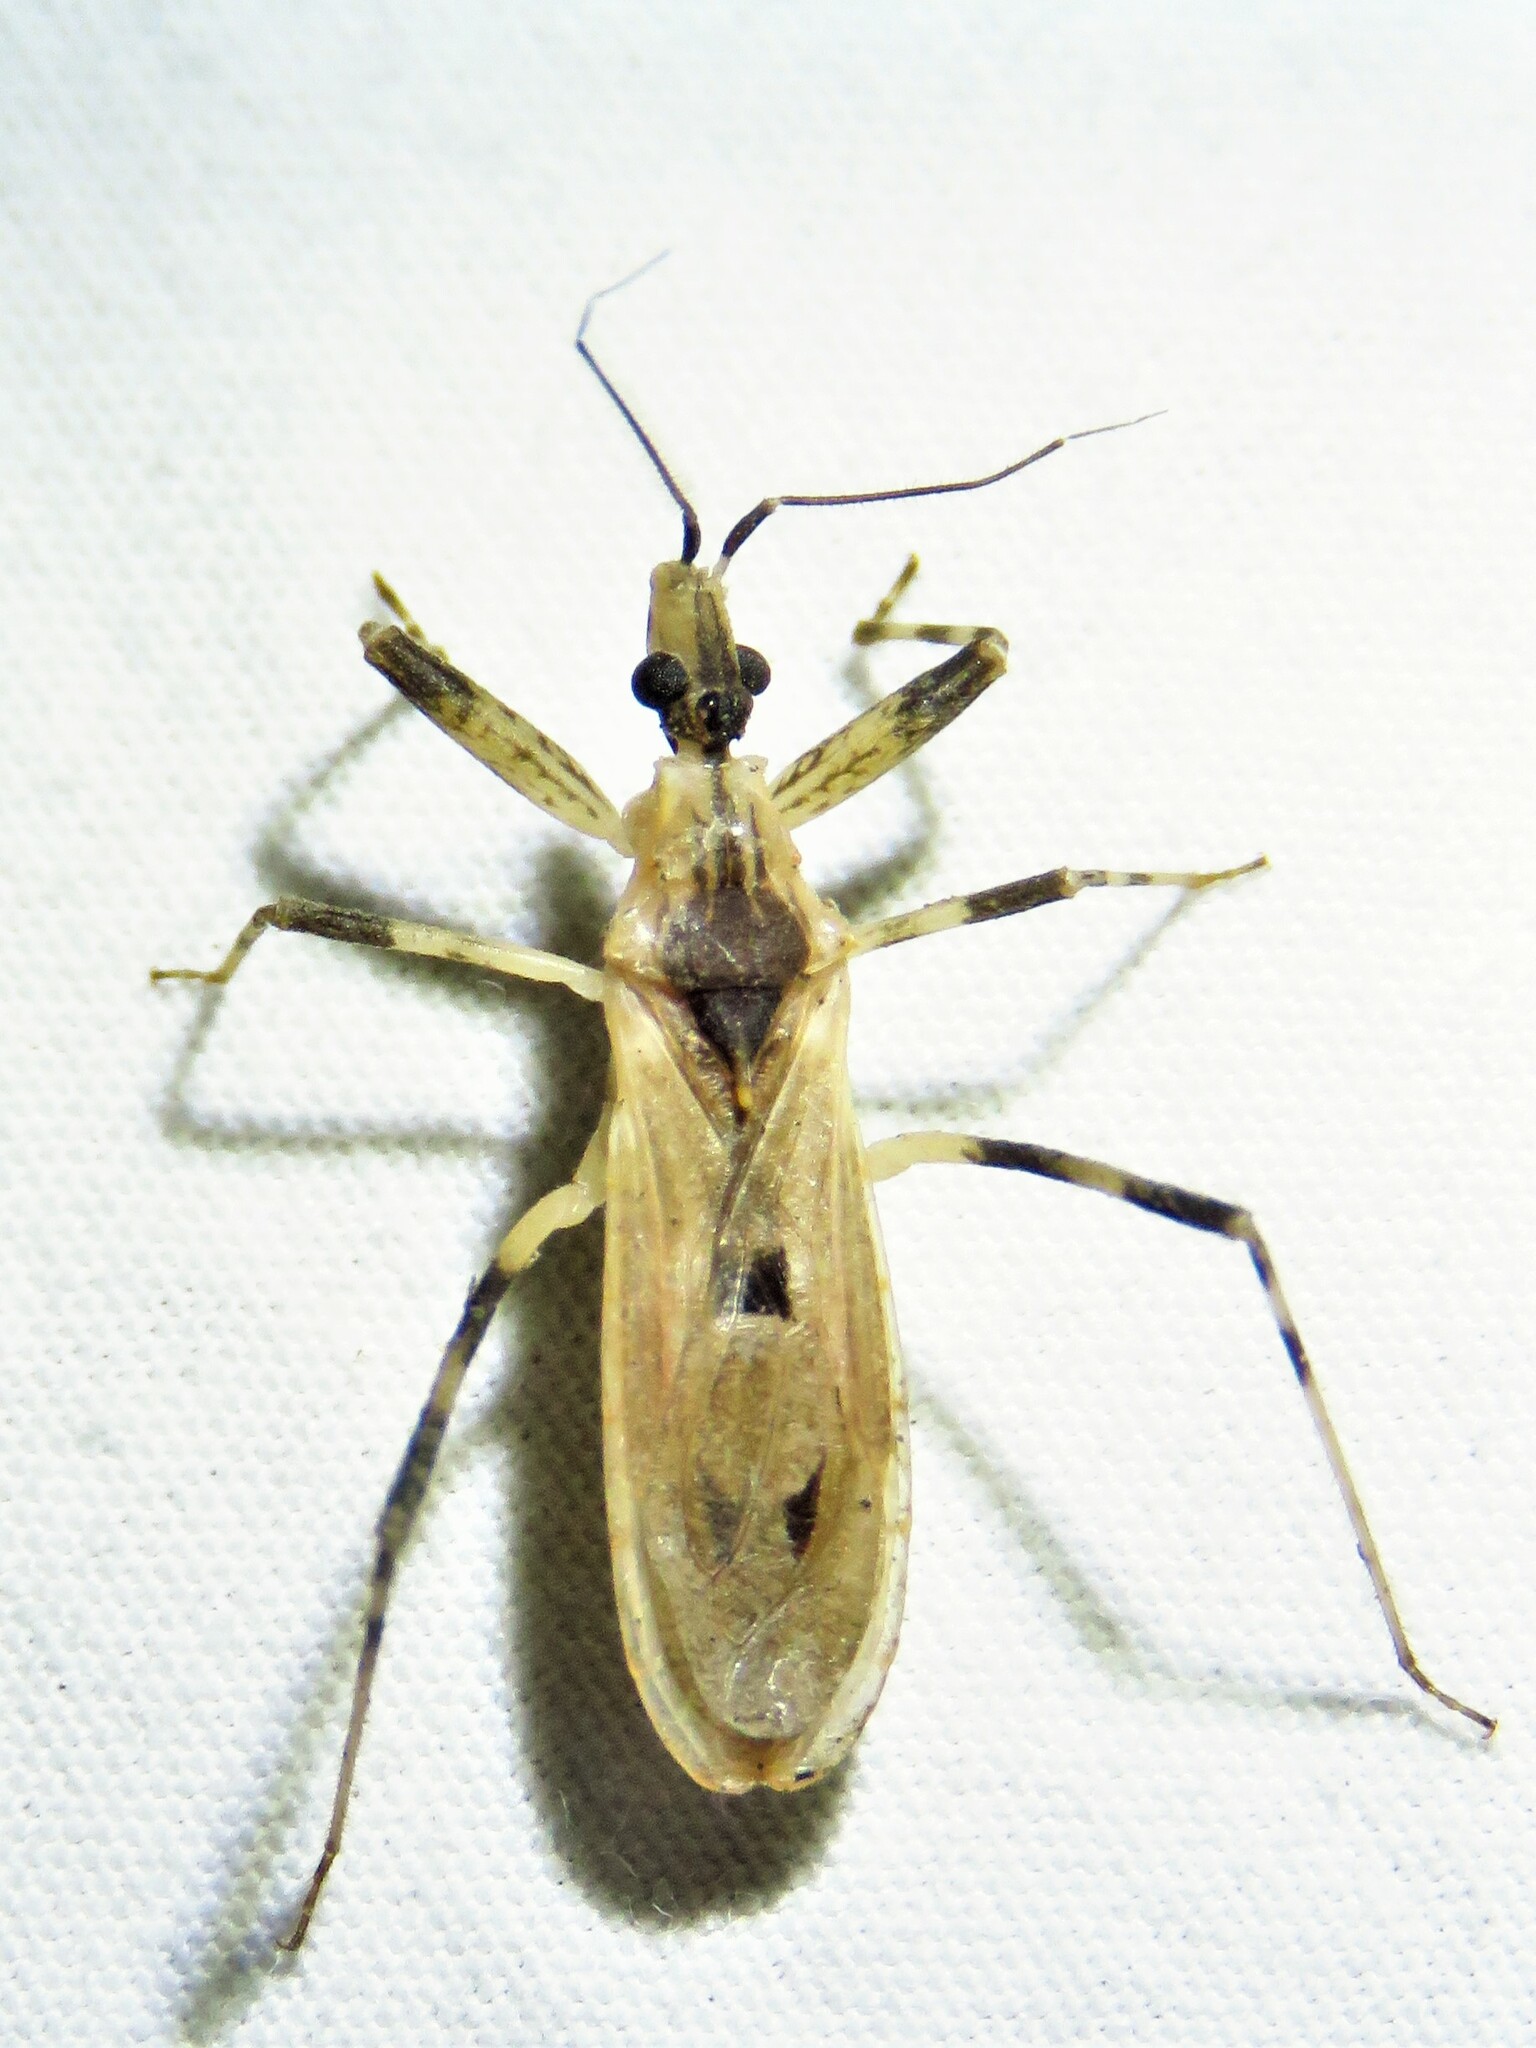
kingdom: Animalia
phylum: Arthropoda
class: Insecta
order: Hemiptera
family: Reduviidae
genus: Oncocephalus
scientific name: Oncocephalus geniculatus
